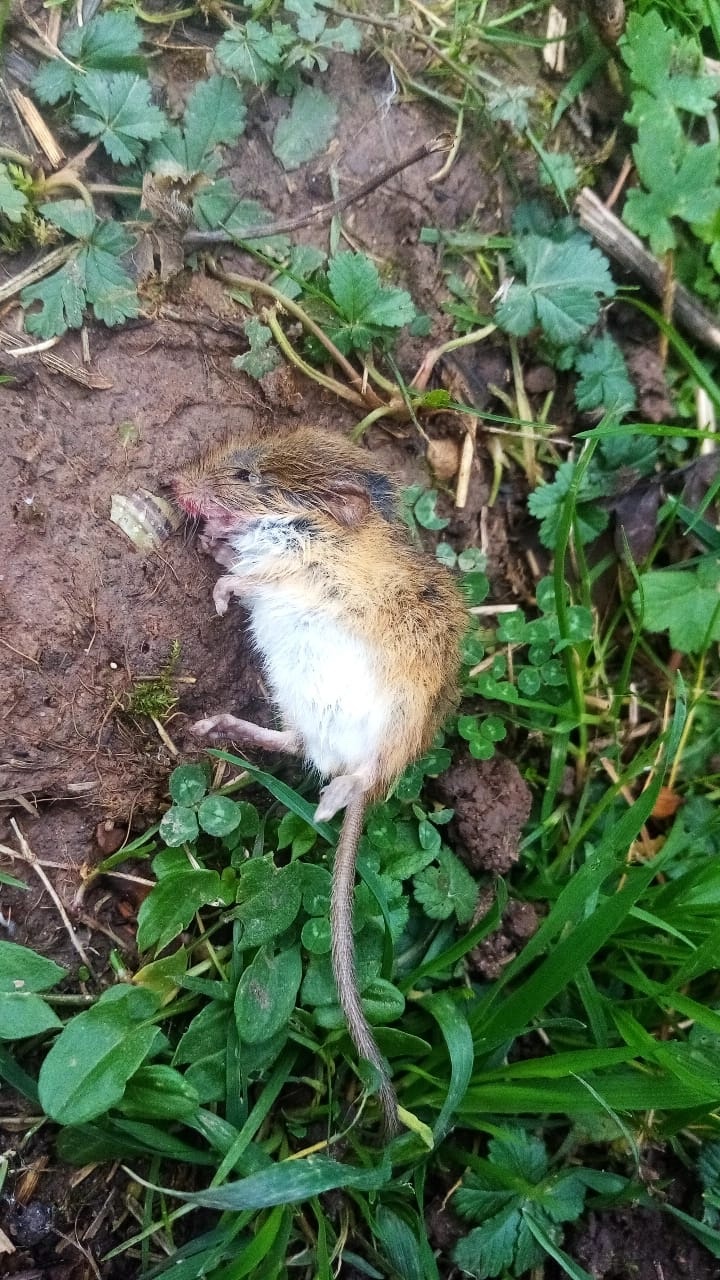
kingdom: Animalia
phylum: Chordata
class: Mammalia
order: Rodentia
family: Muridae
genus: Micromys
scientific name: Micromys minutus
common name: Harvest mouse
